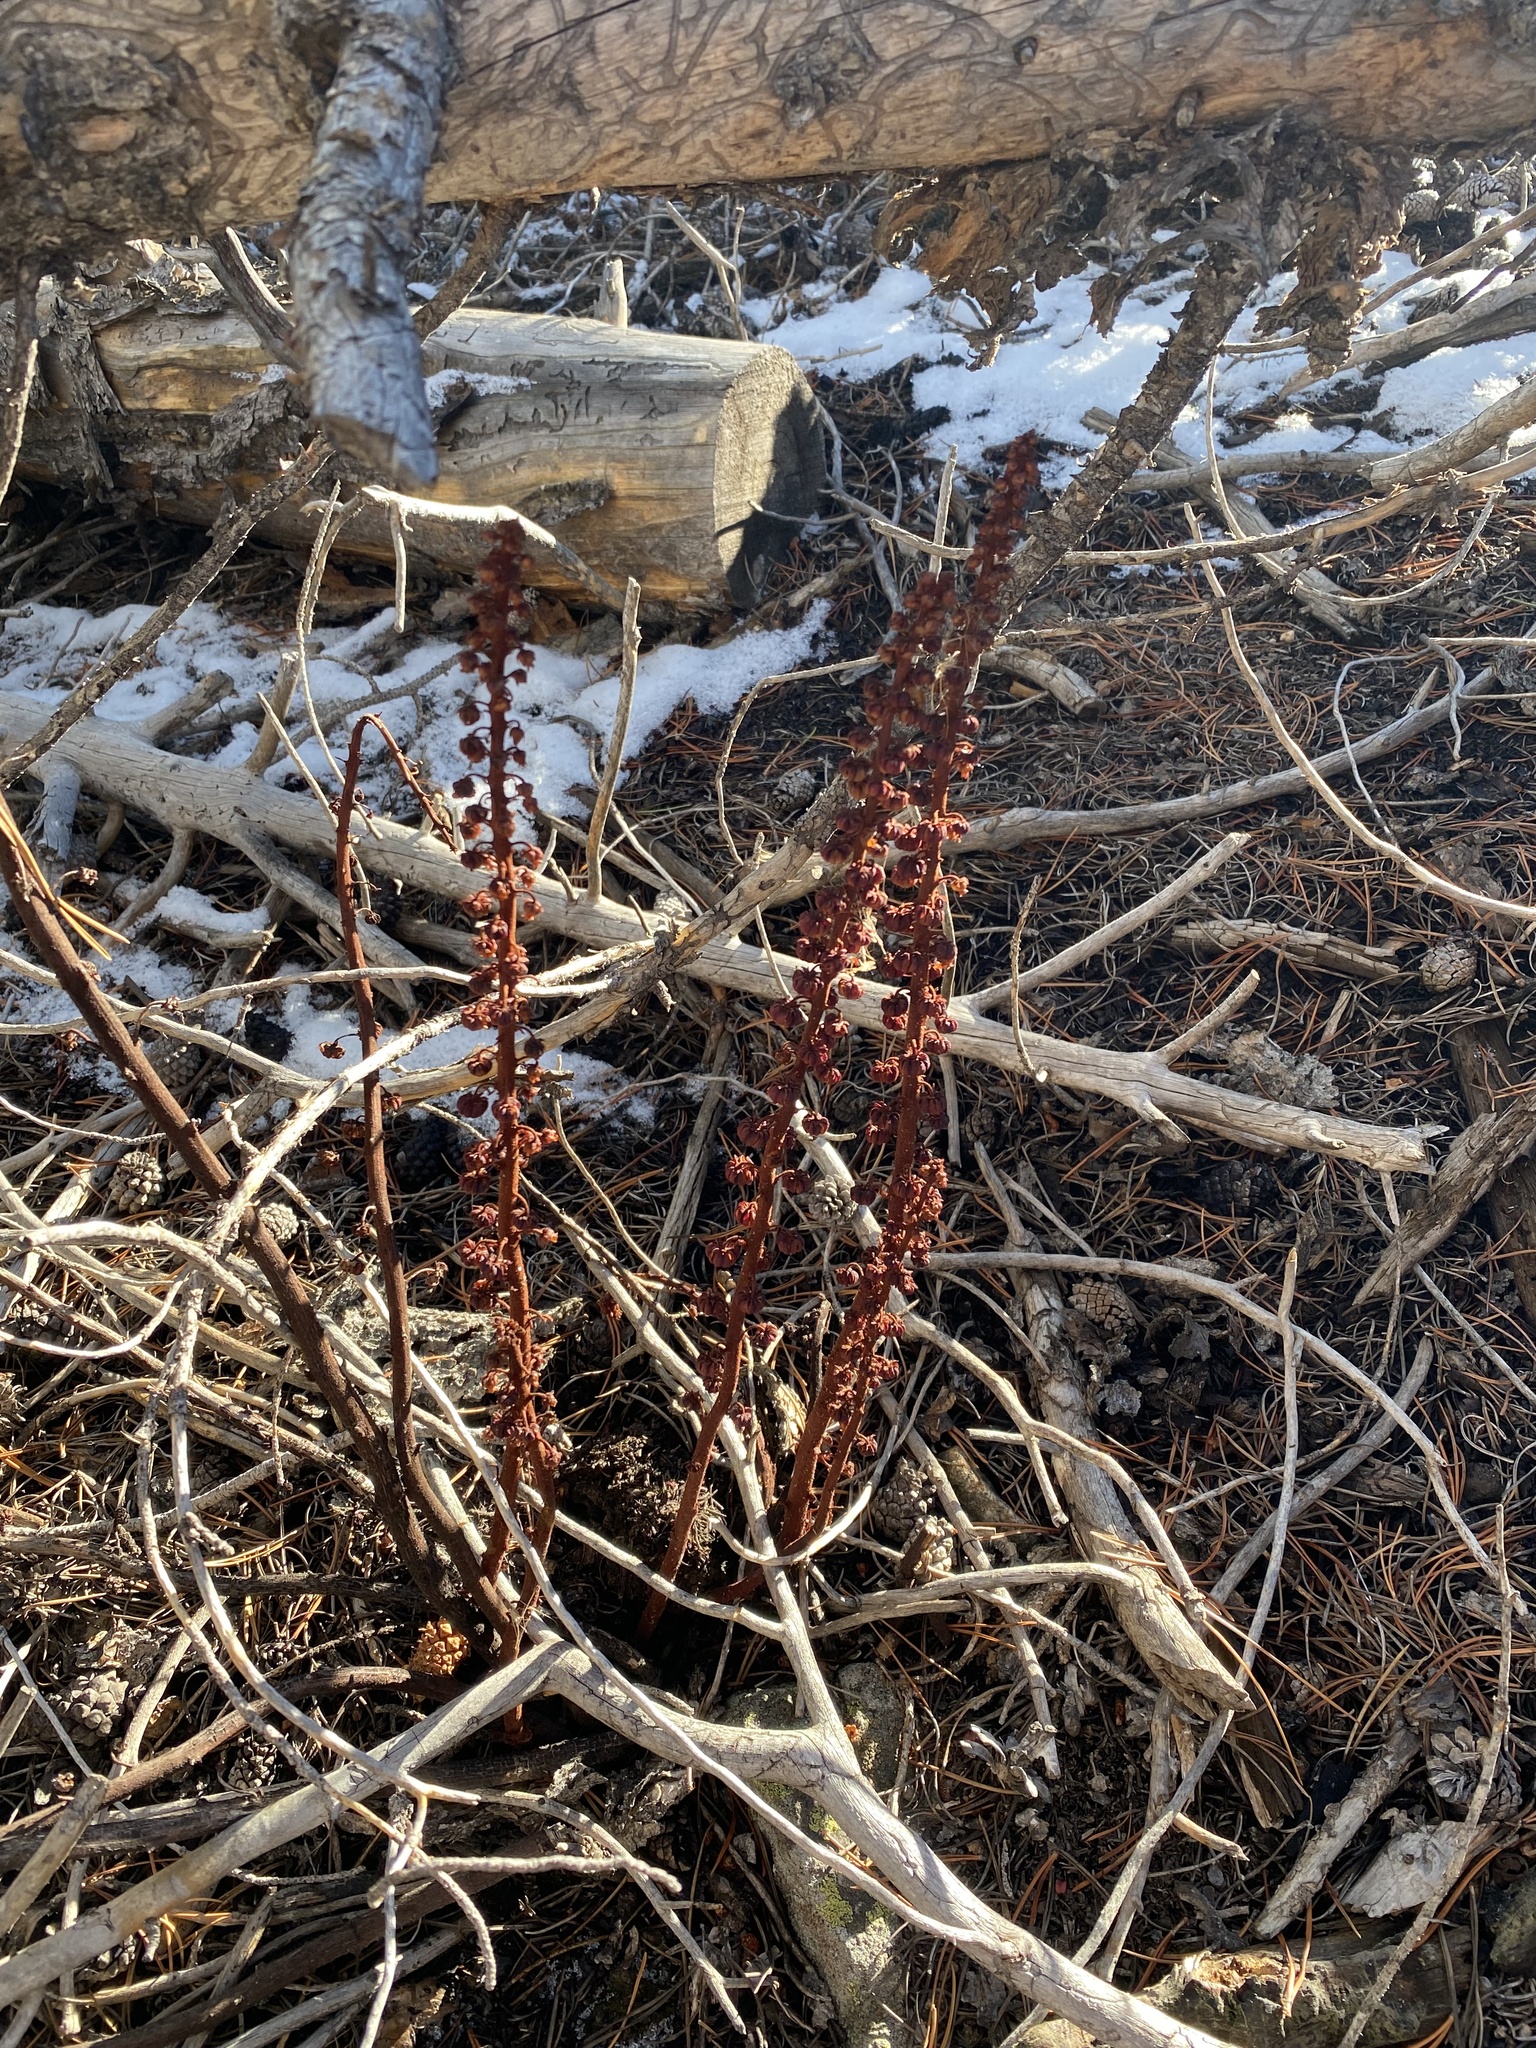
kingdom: Plantae
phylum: Tracheophyta
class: Magnoliopsida
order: Ericales
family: Ericaceae
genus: Pterospora
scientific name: Pterospora andromedea
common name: Giant bird's-nest
